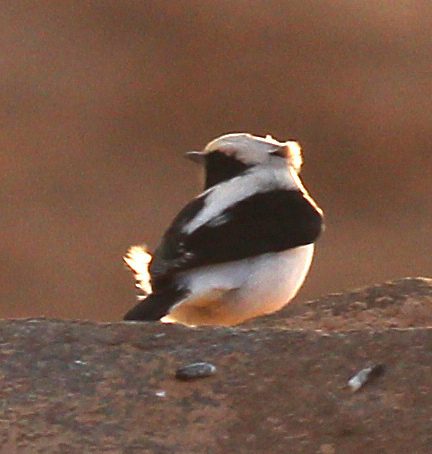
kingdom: Animalia
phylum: Chordata
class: Aves
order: Passeriformes
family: Muscicapidae
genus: Oenanthe
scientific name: Oenanthe finschii
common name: Finsch's wheatear
